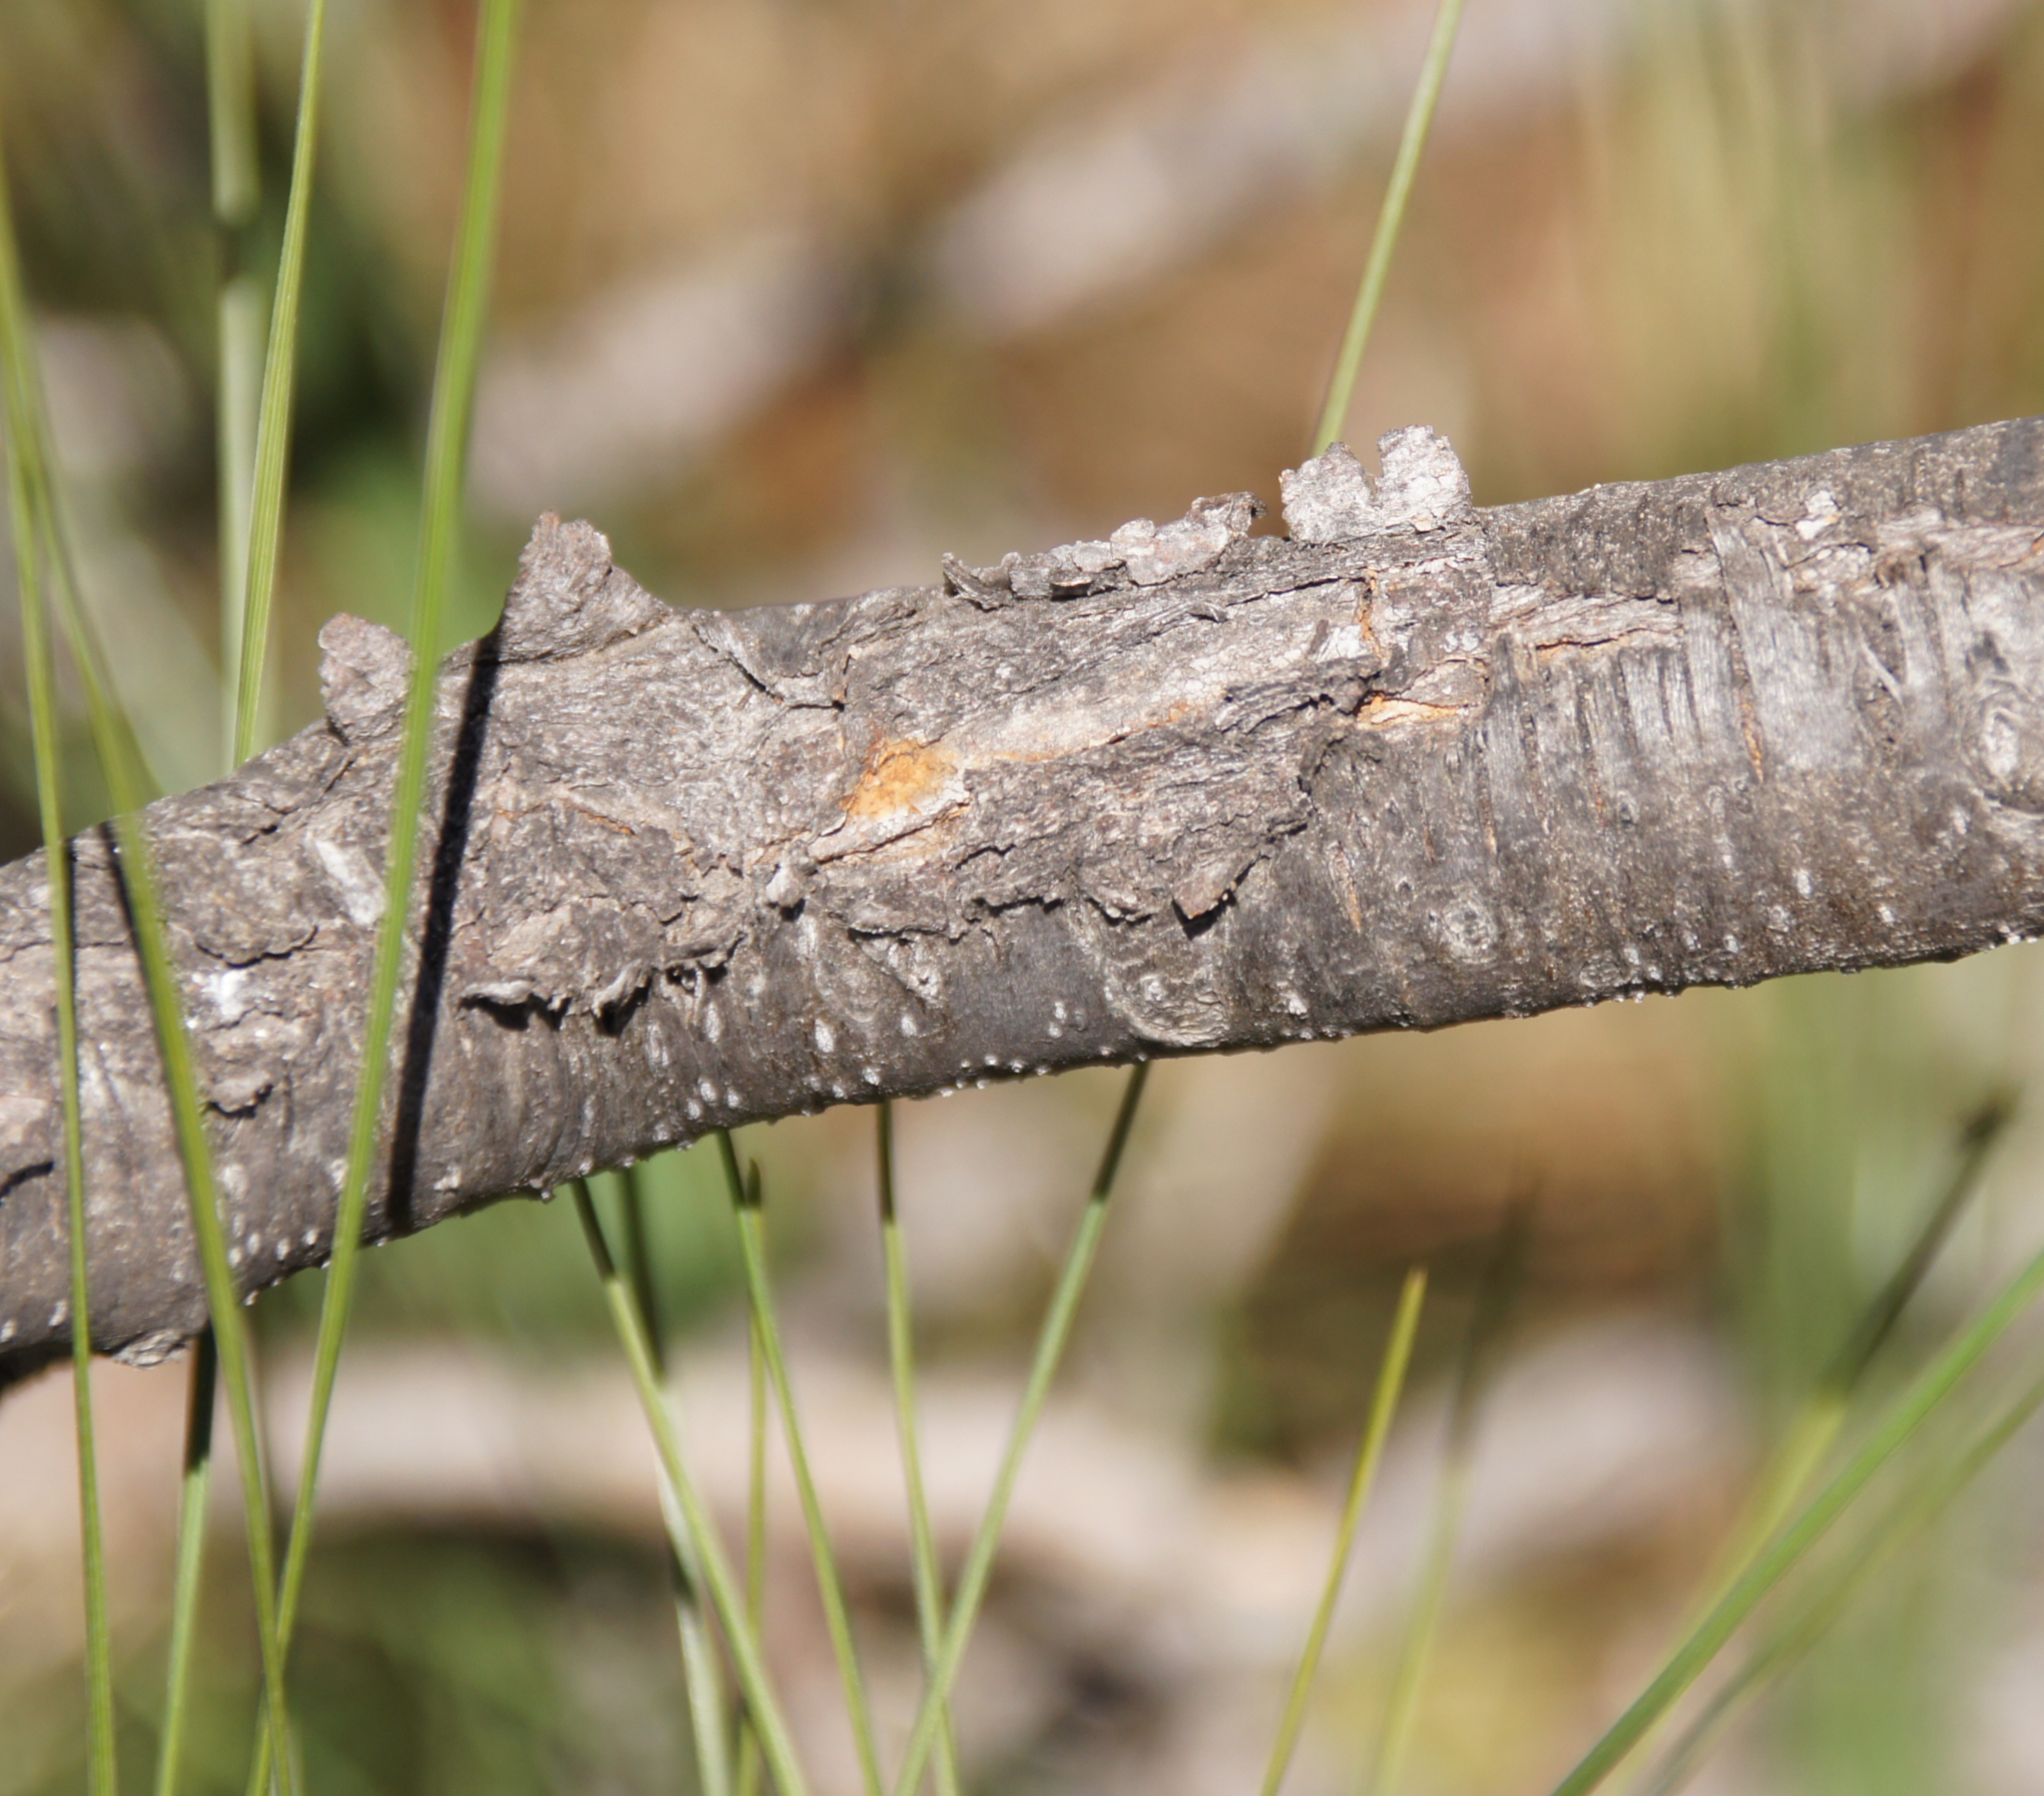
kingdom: Plantae
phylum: Tracheophyta
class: Magnoliopsida
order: Rosales
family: Rosaceae
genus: Prunus
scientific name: Prunus amygdalus
